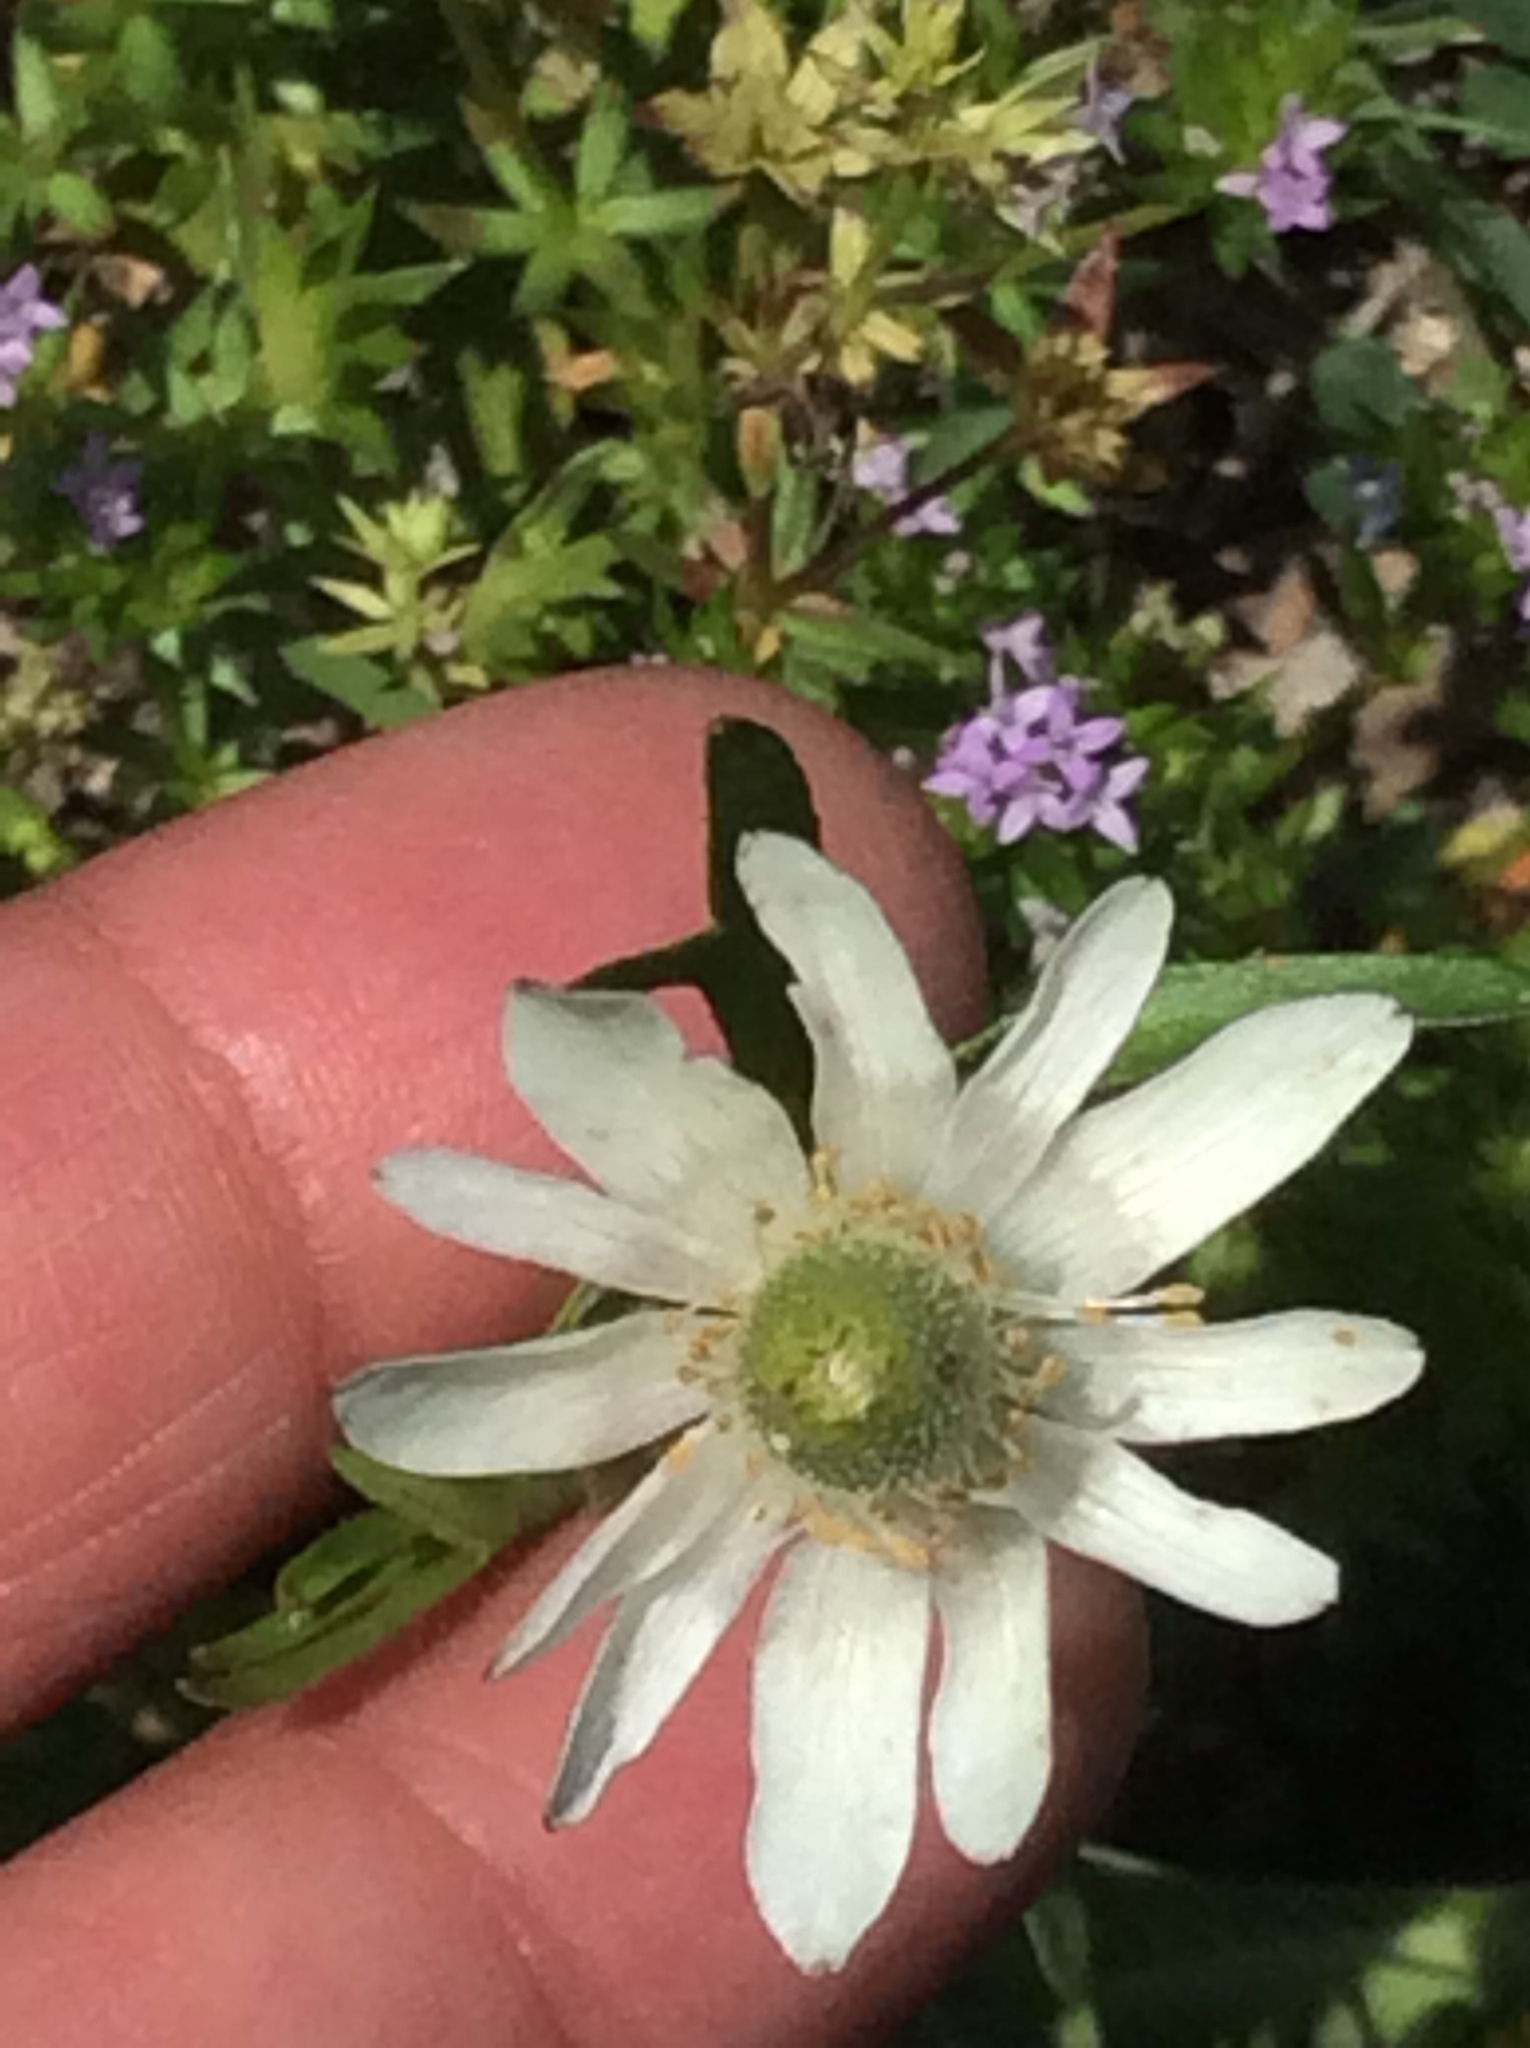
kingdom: Plantae
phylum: Tracheophyta
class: Magnoliopsida
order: Ranunculales
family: Ranunculaceae
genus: Anemone
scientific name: Anemone berlandieri
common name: Ten-petal anemone
